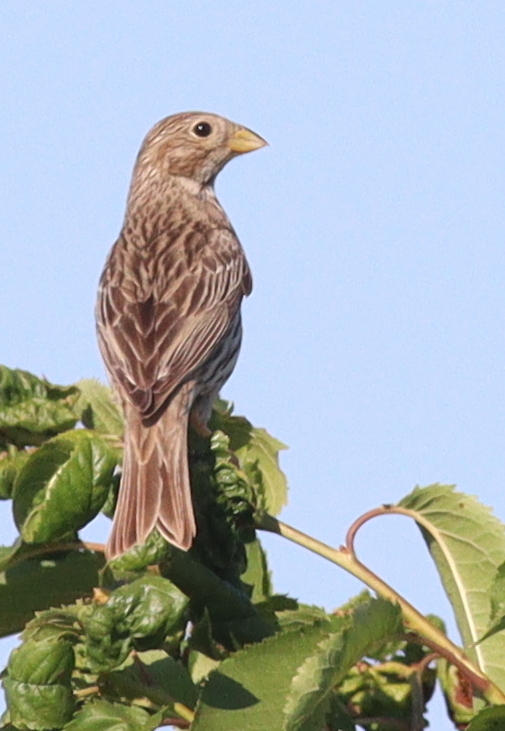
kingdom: Animalia
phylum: Chordata
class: Aves
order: Passeriformes
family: Emberizidae
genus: Emberiza
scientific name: Emberiza calandra
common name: Corn bunting
